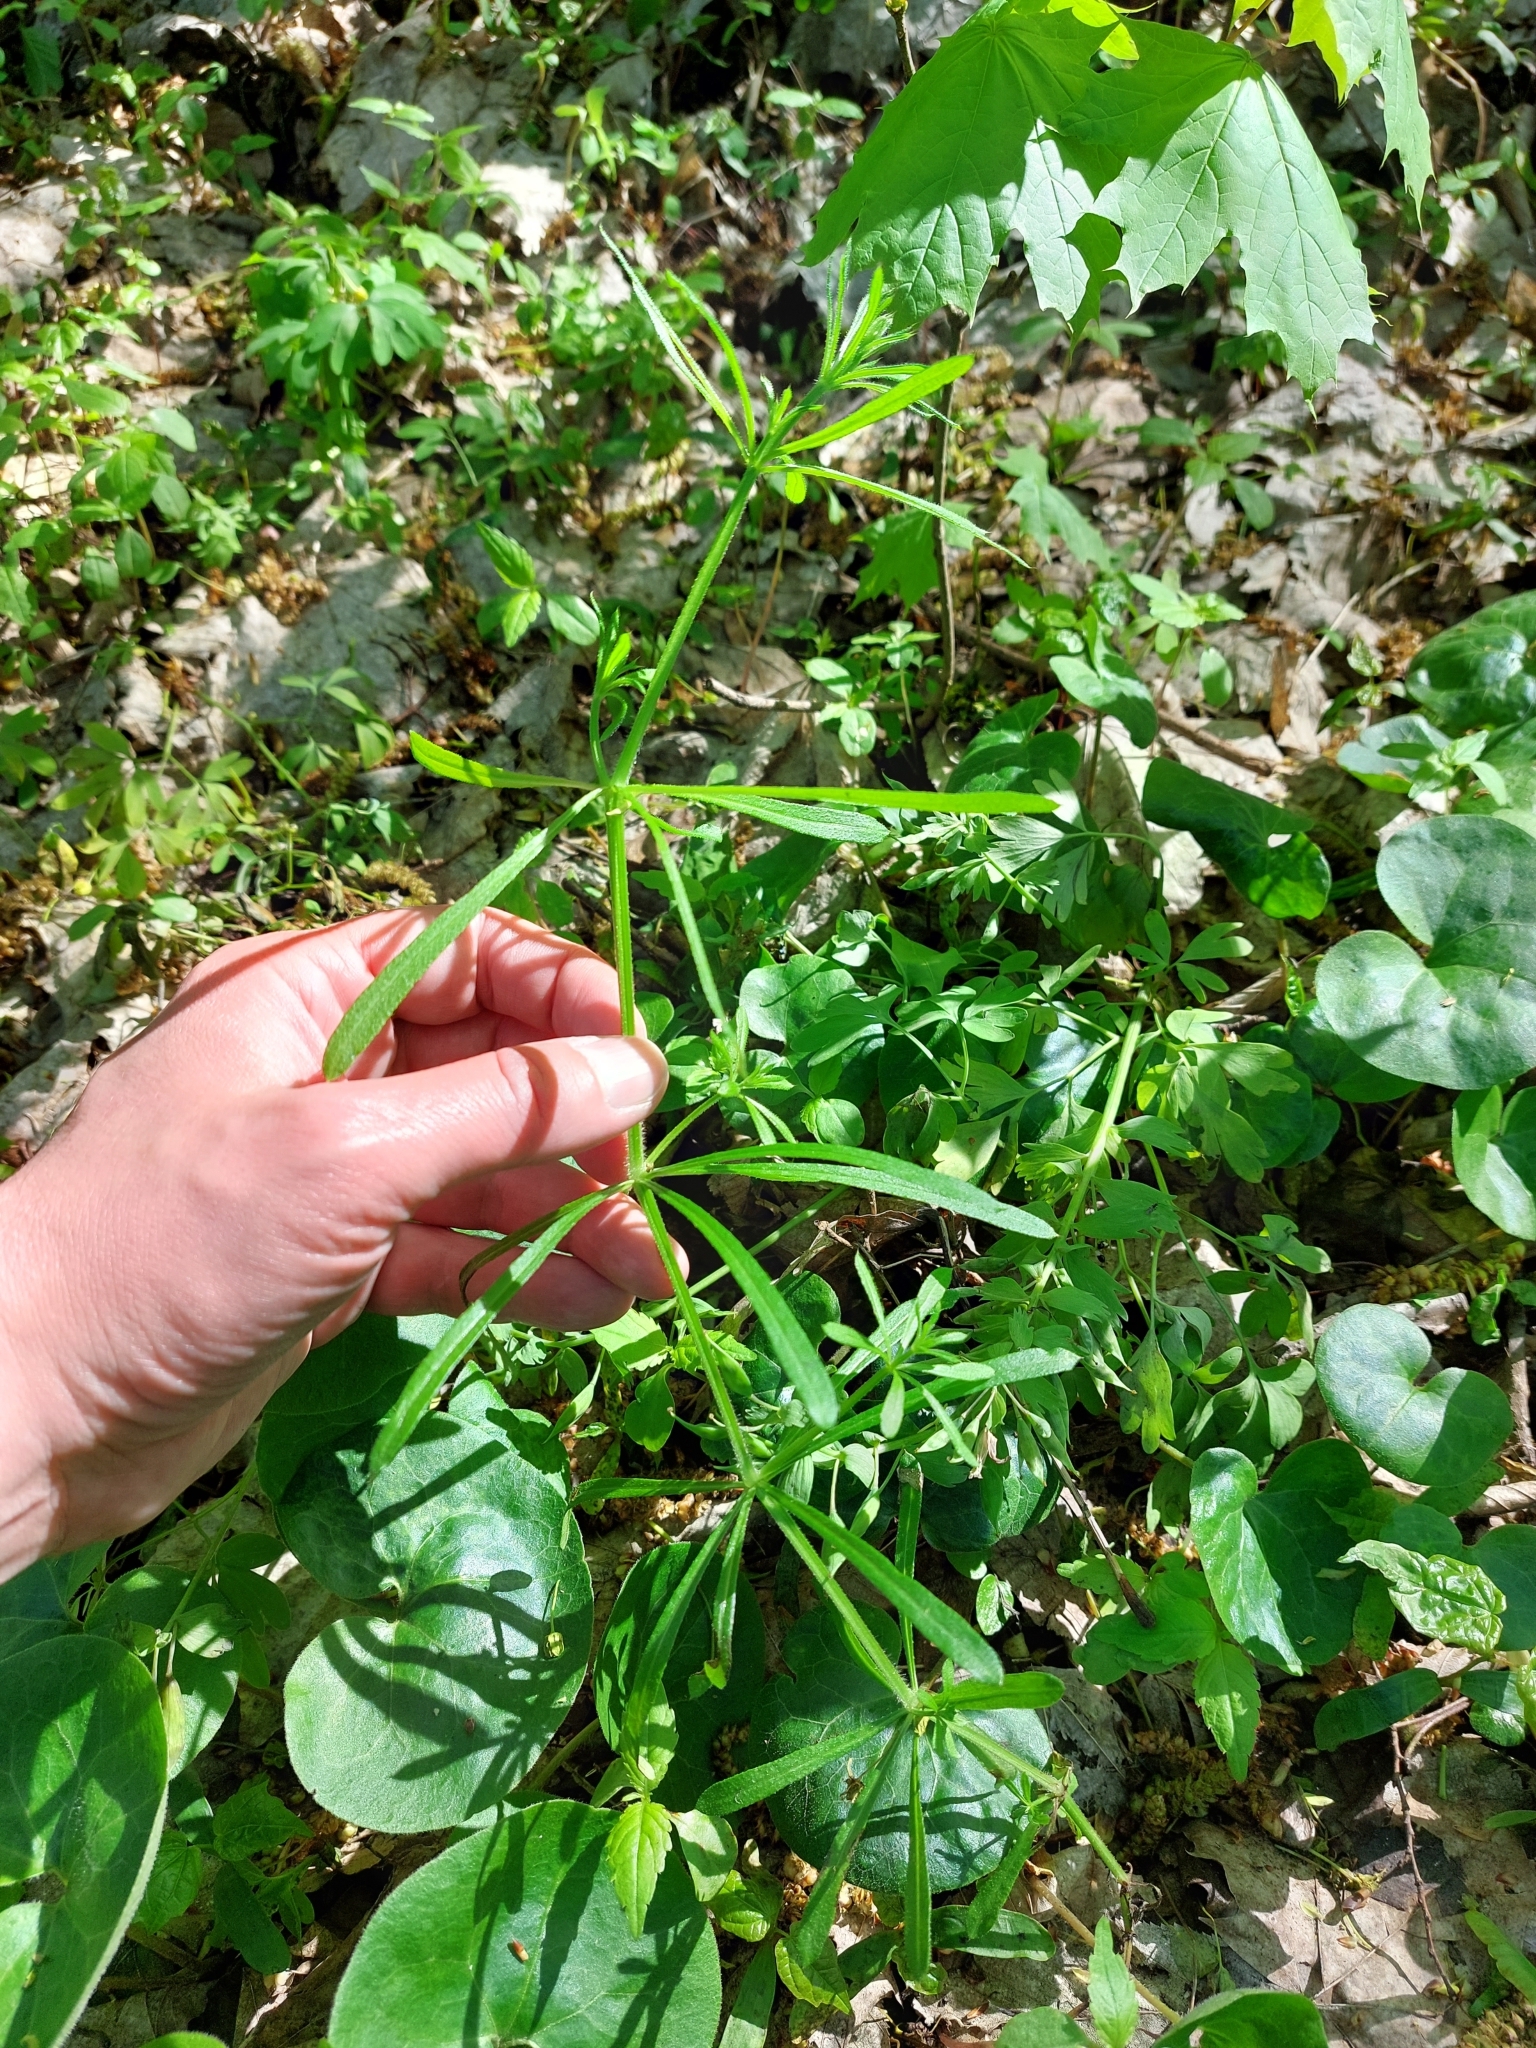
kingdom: Plantae
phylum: Tracheophyta
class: Magnoliopsida
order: Gentianales
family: Rubiaceae
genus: Galium
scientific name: Galium aparine
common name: Cleavers
